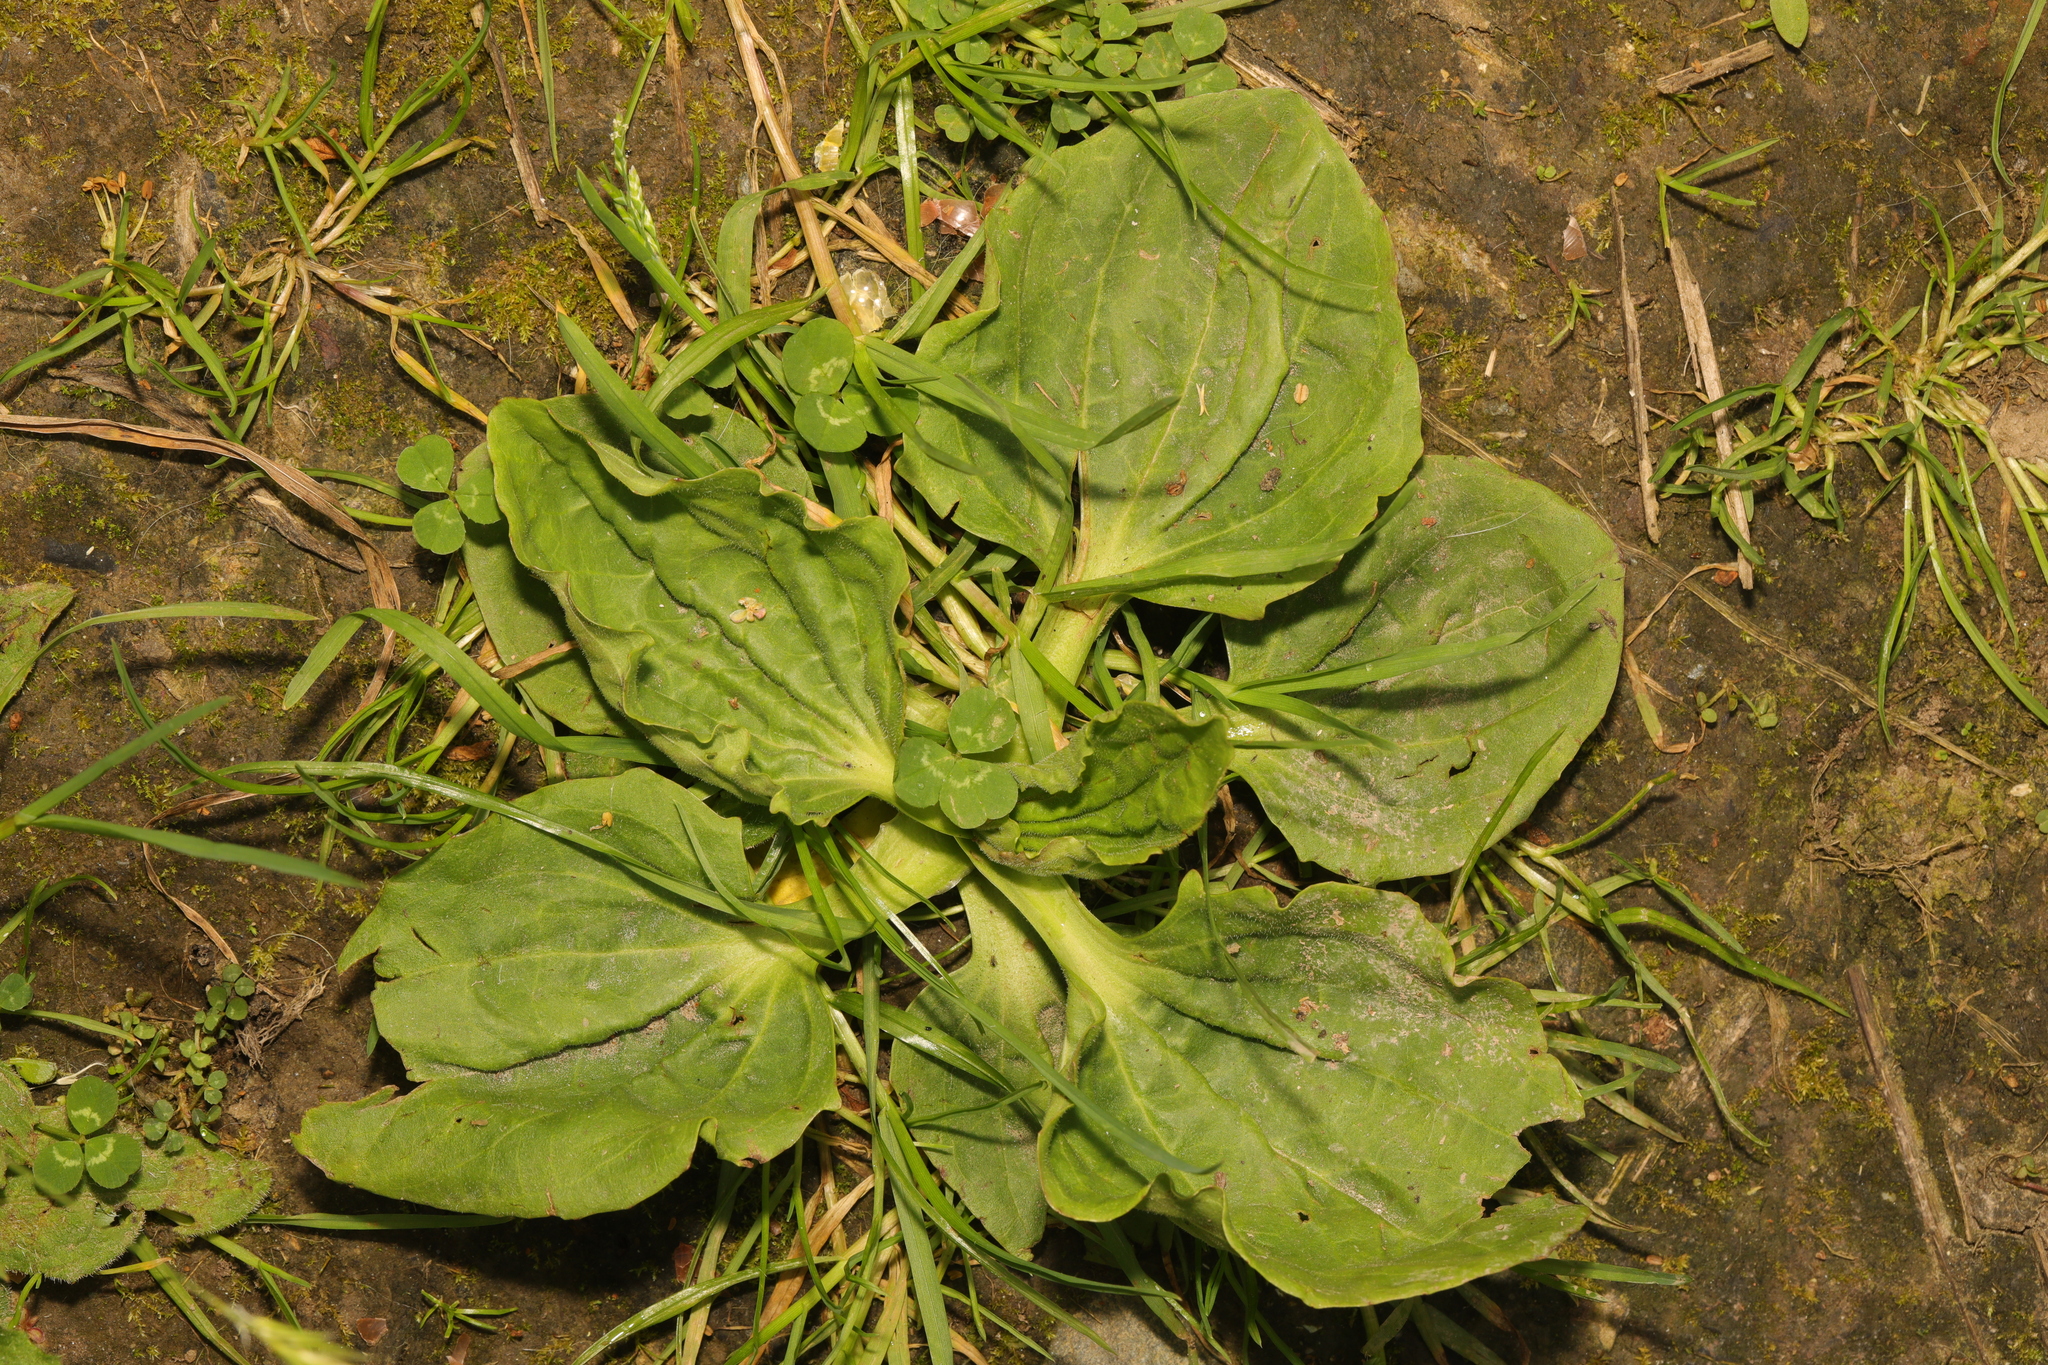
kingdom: Plantae
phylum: Tracheophyta
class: Magnoliopsida
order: Lamiales
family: Plantaginaceae
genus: Plantago
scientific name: Plantago major
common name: Common plantain
